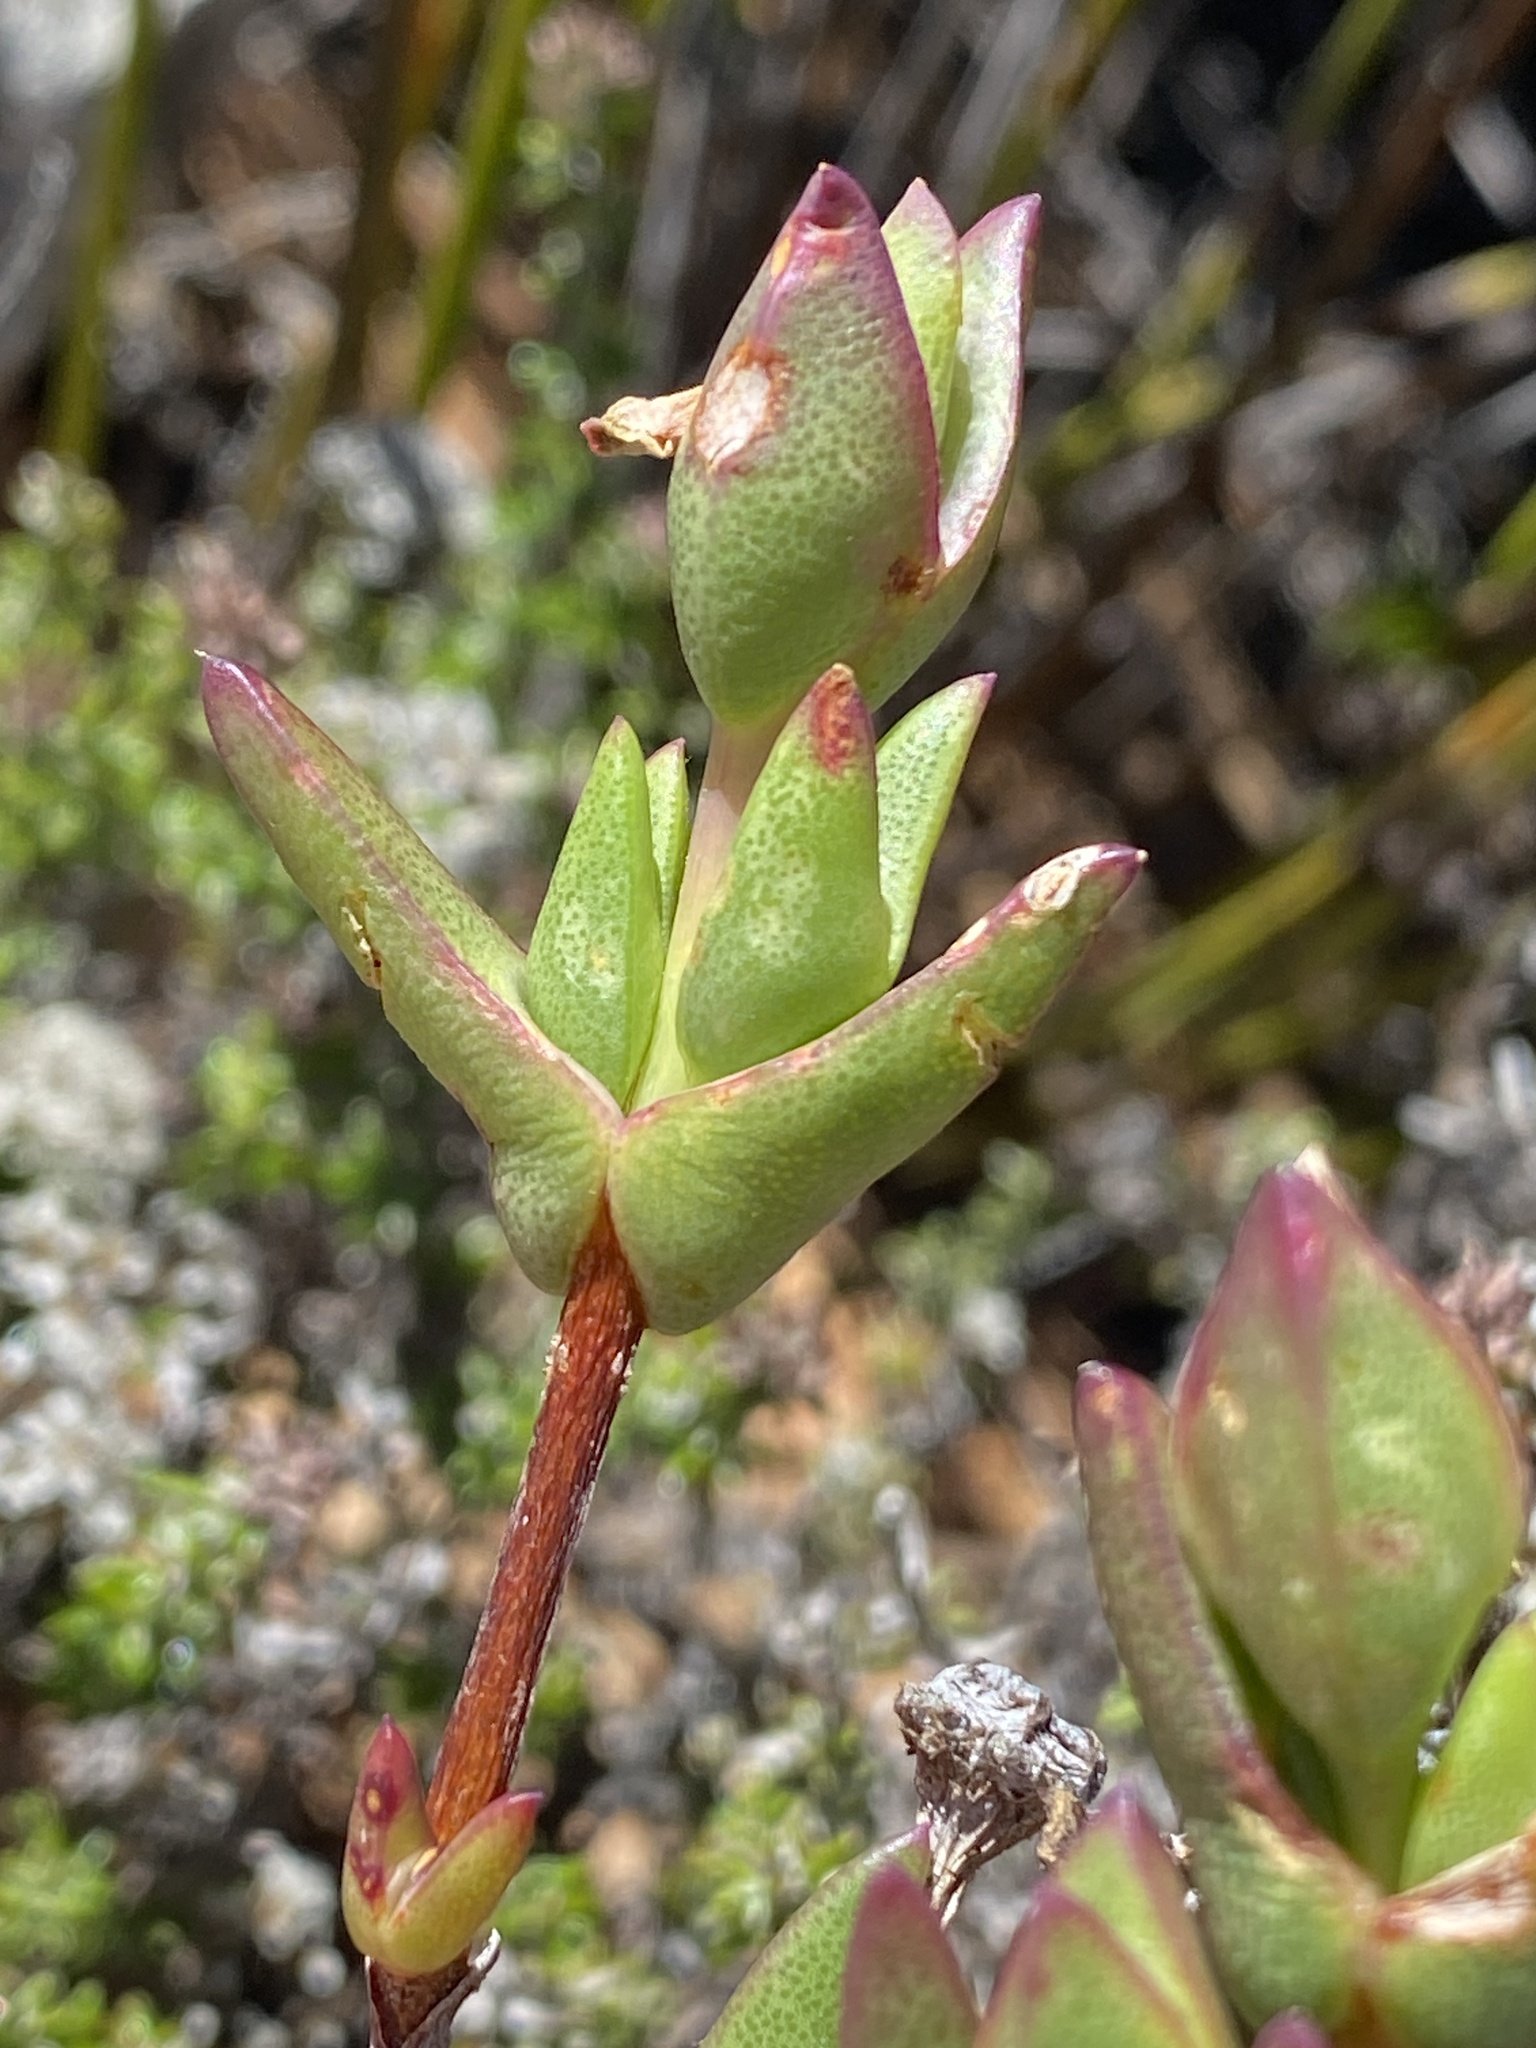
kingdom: Plantae
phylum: Tracheophyta
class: Magnoliopsida
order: Caryophyllales
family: Aizoaceae
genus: Ruschia
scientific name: Ruschia orientalis
